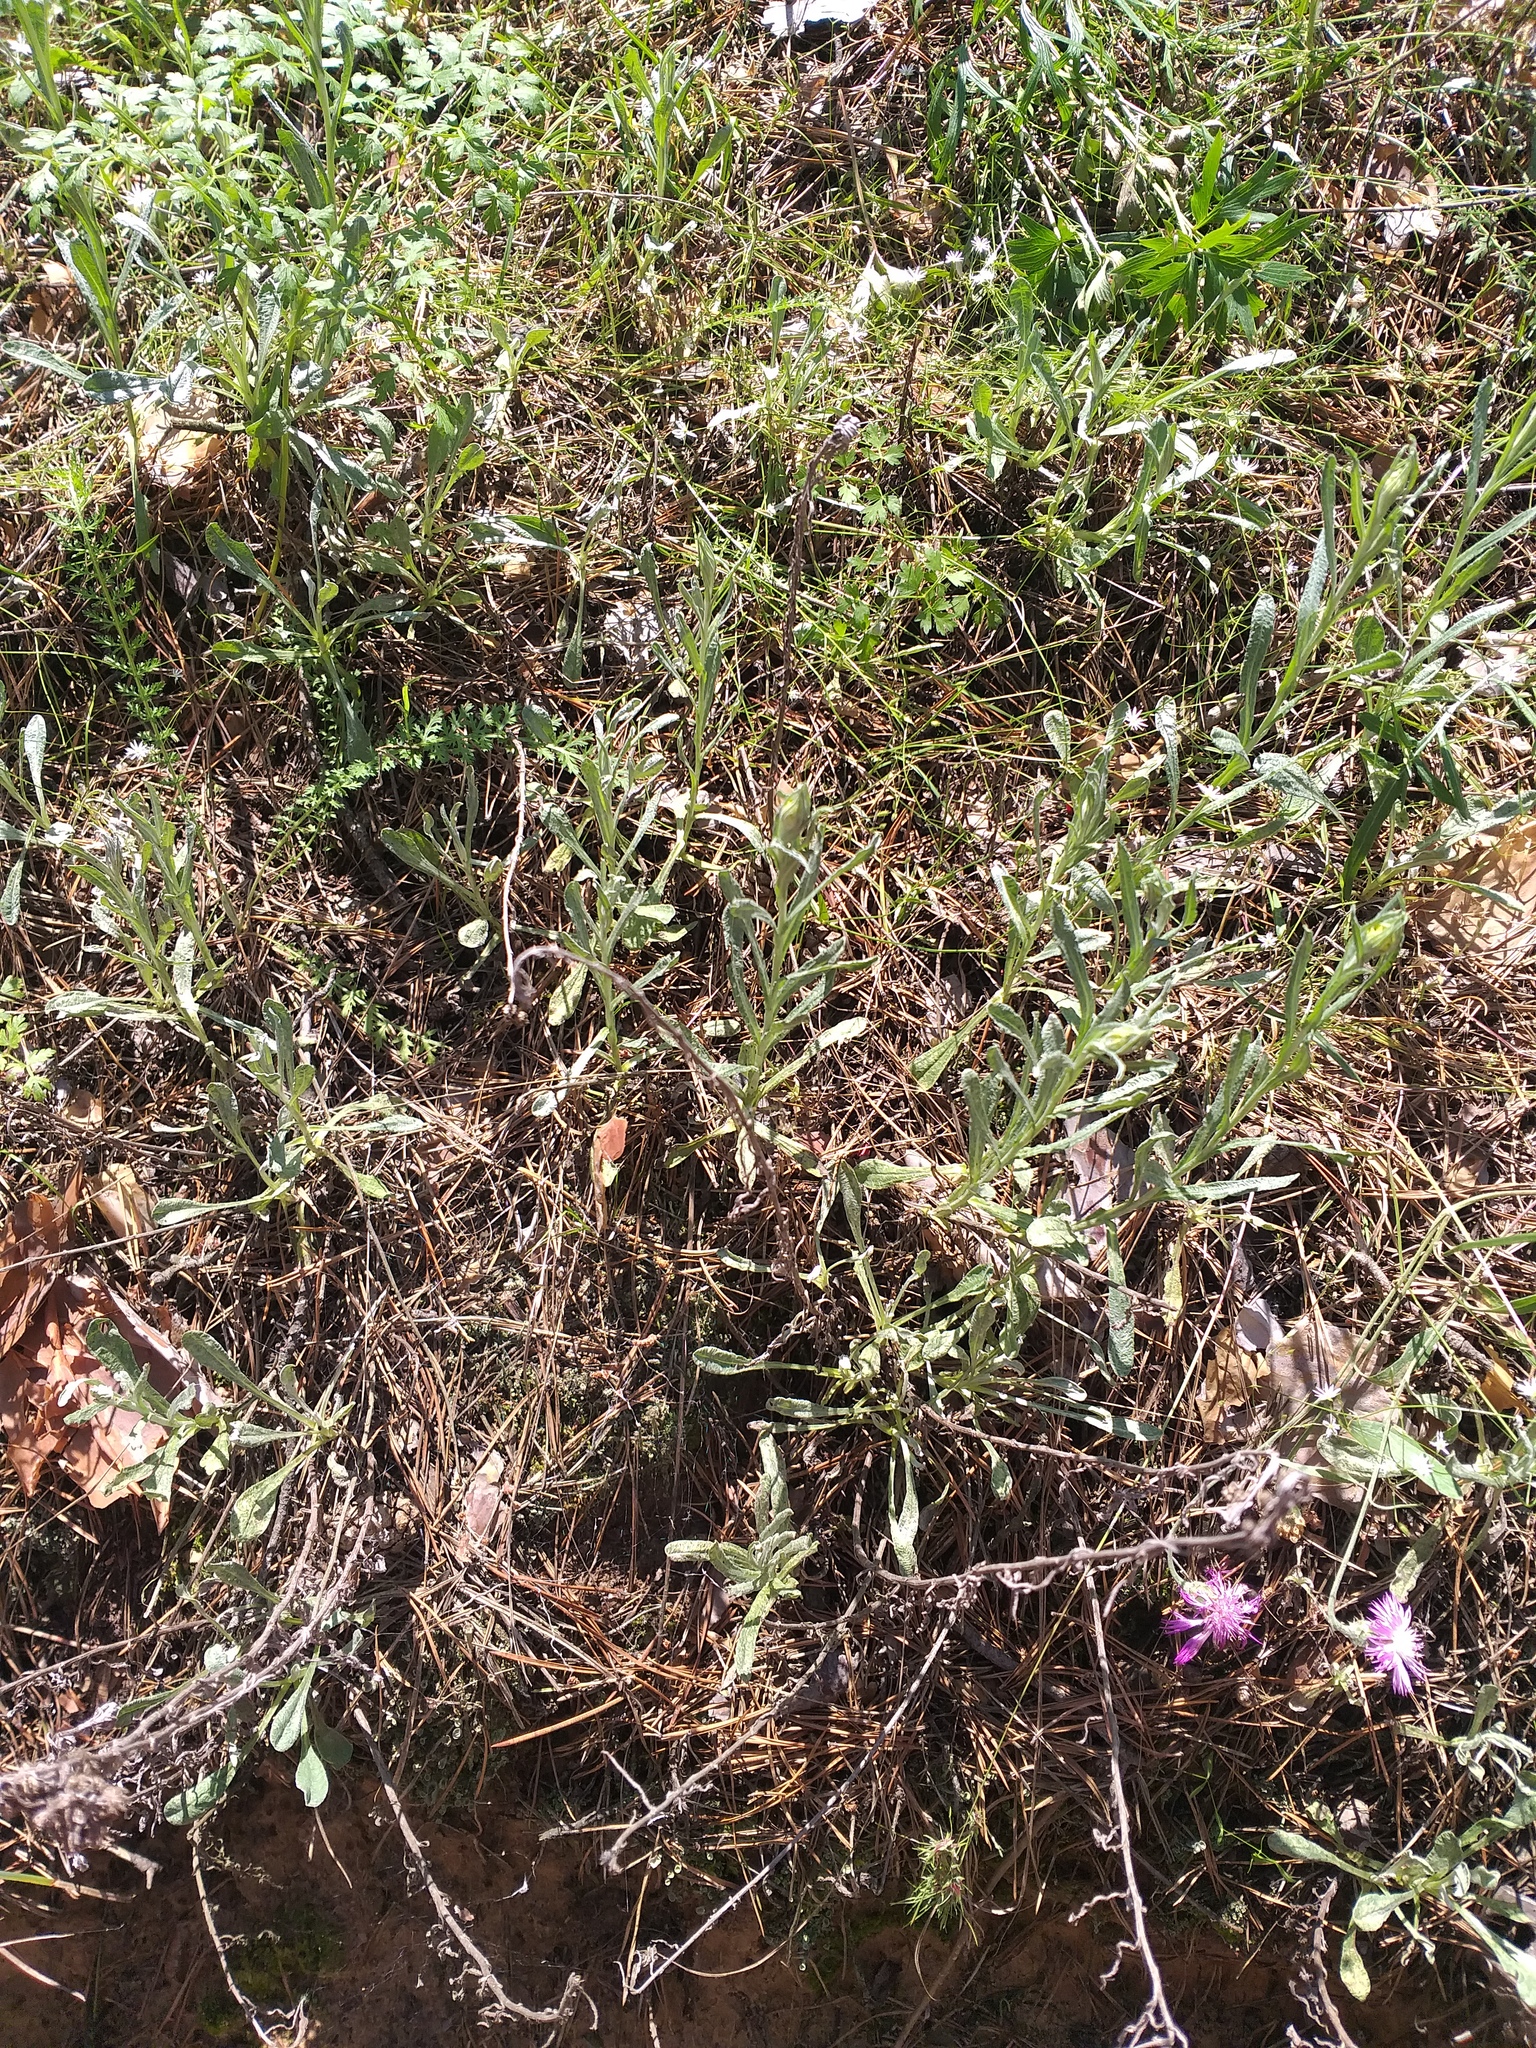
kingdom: Plantae
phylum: Tracheophyta
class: Magnoliopsida
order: Asterales
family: Asteraceae
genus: Helichrysum
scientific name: Helichrysum arenarium
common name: Strawflower
